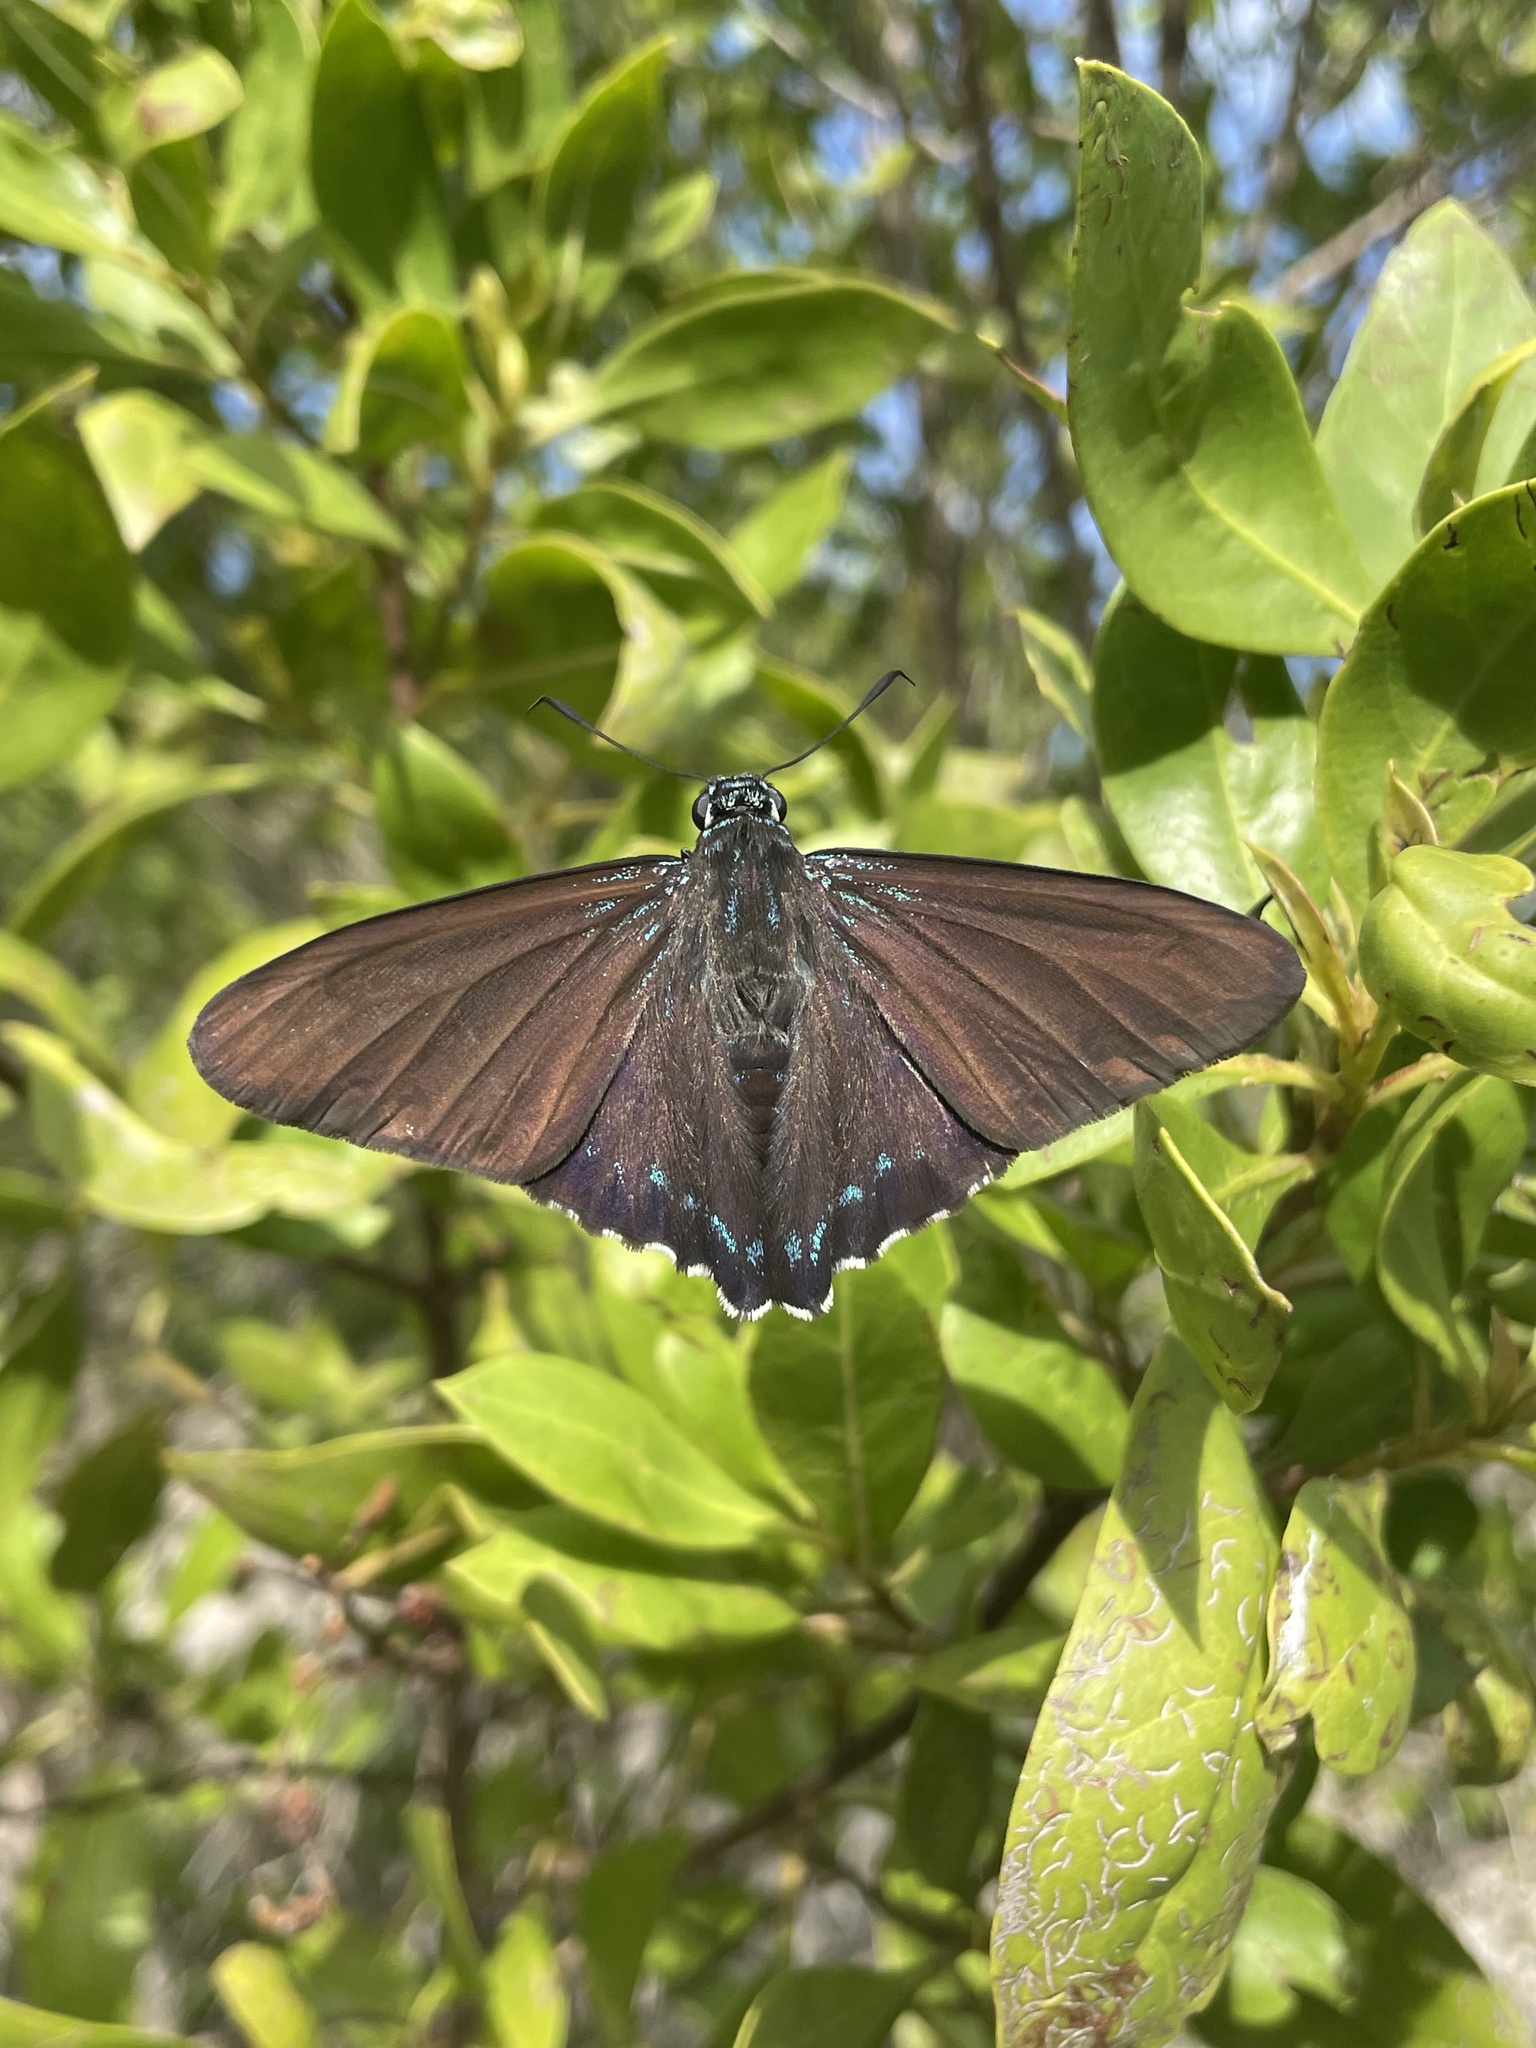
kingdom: Animalia
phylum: Arthropoda
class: Insecta
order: Lepidoptera
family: Hesperiidae
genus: Phocides
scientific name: Phocides pigmalion
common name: Mangrove skipper
